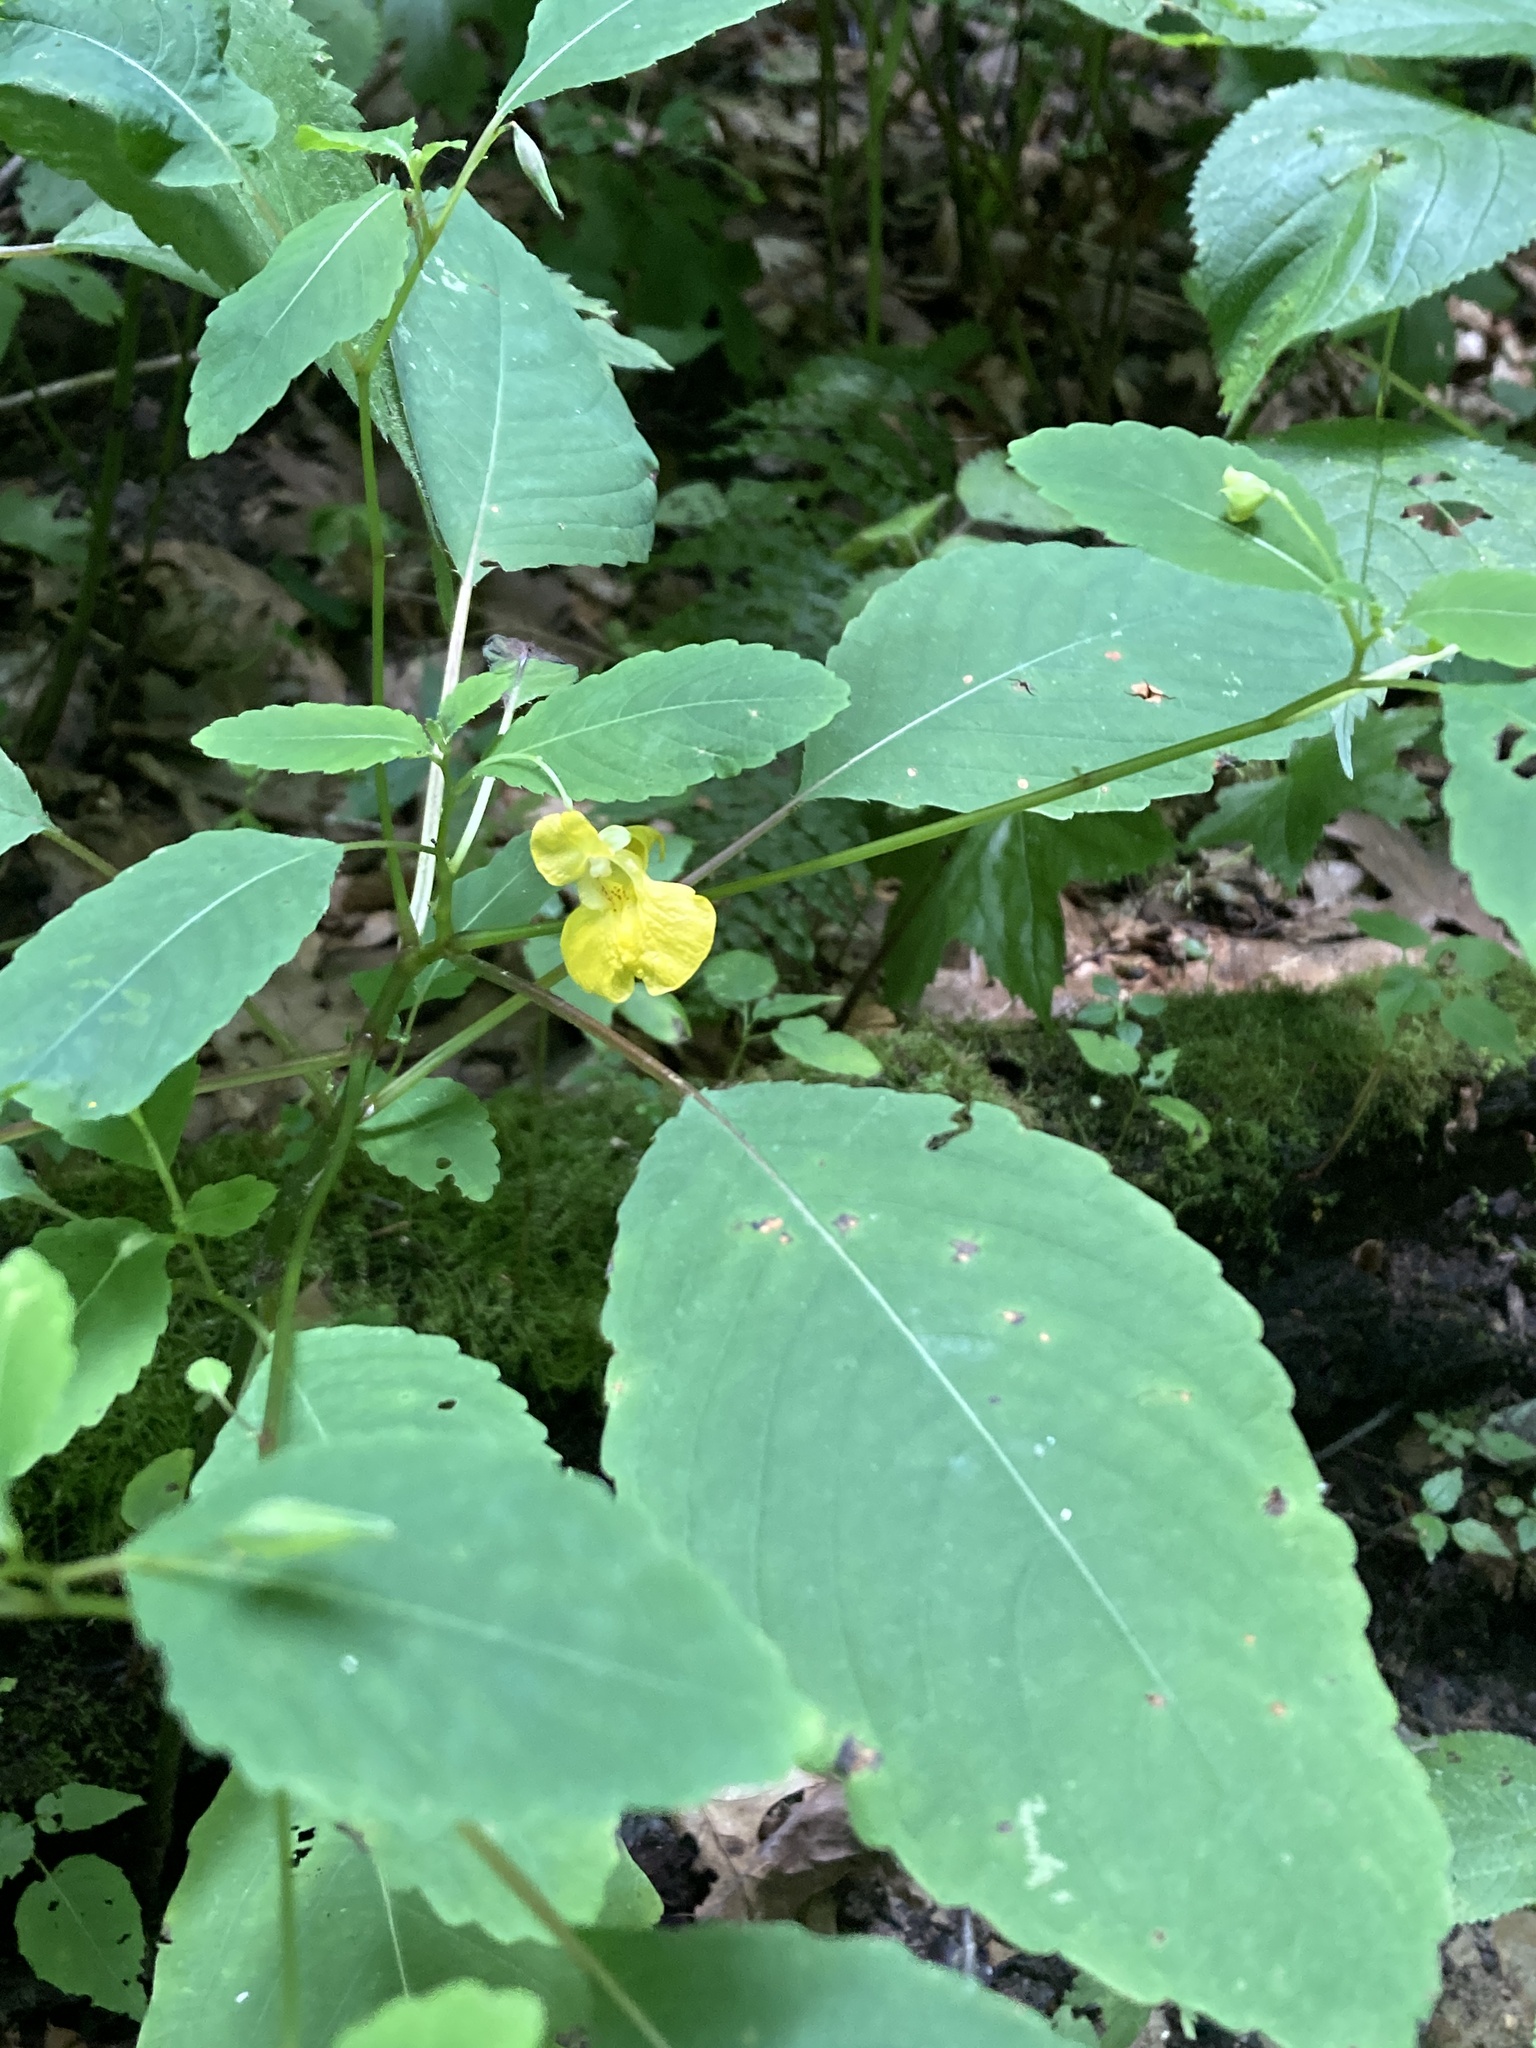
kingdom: Plantae
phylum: Tracheophyta
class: Magnoliopsida
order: Ericales
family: Balsaminaceae
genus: Impatiens
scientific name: Impatiens pallida
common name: Pale snapweed
